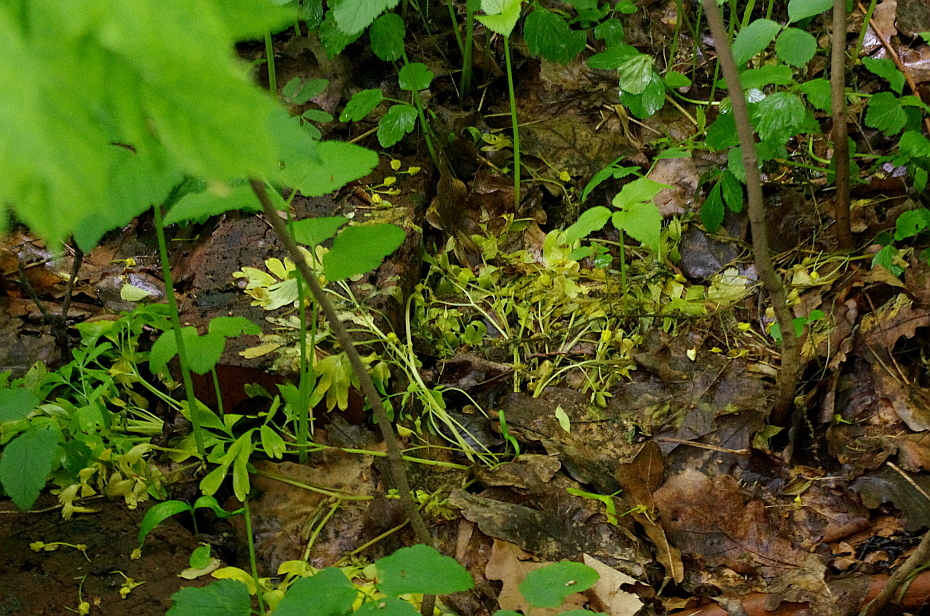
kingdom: Plantae
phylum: Tracheophyta
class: Magnoliopsida
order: Ranunculales
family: Papaveraceae
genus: Corydalis
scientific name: Corydalis solida
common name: Bird-in-a-bush
